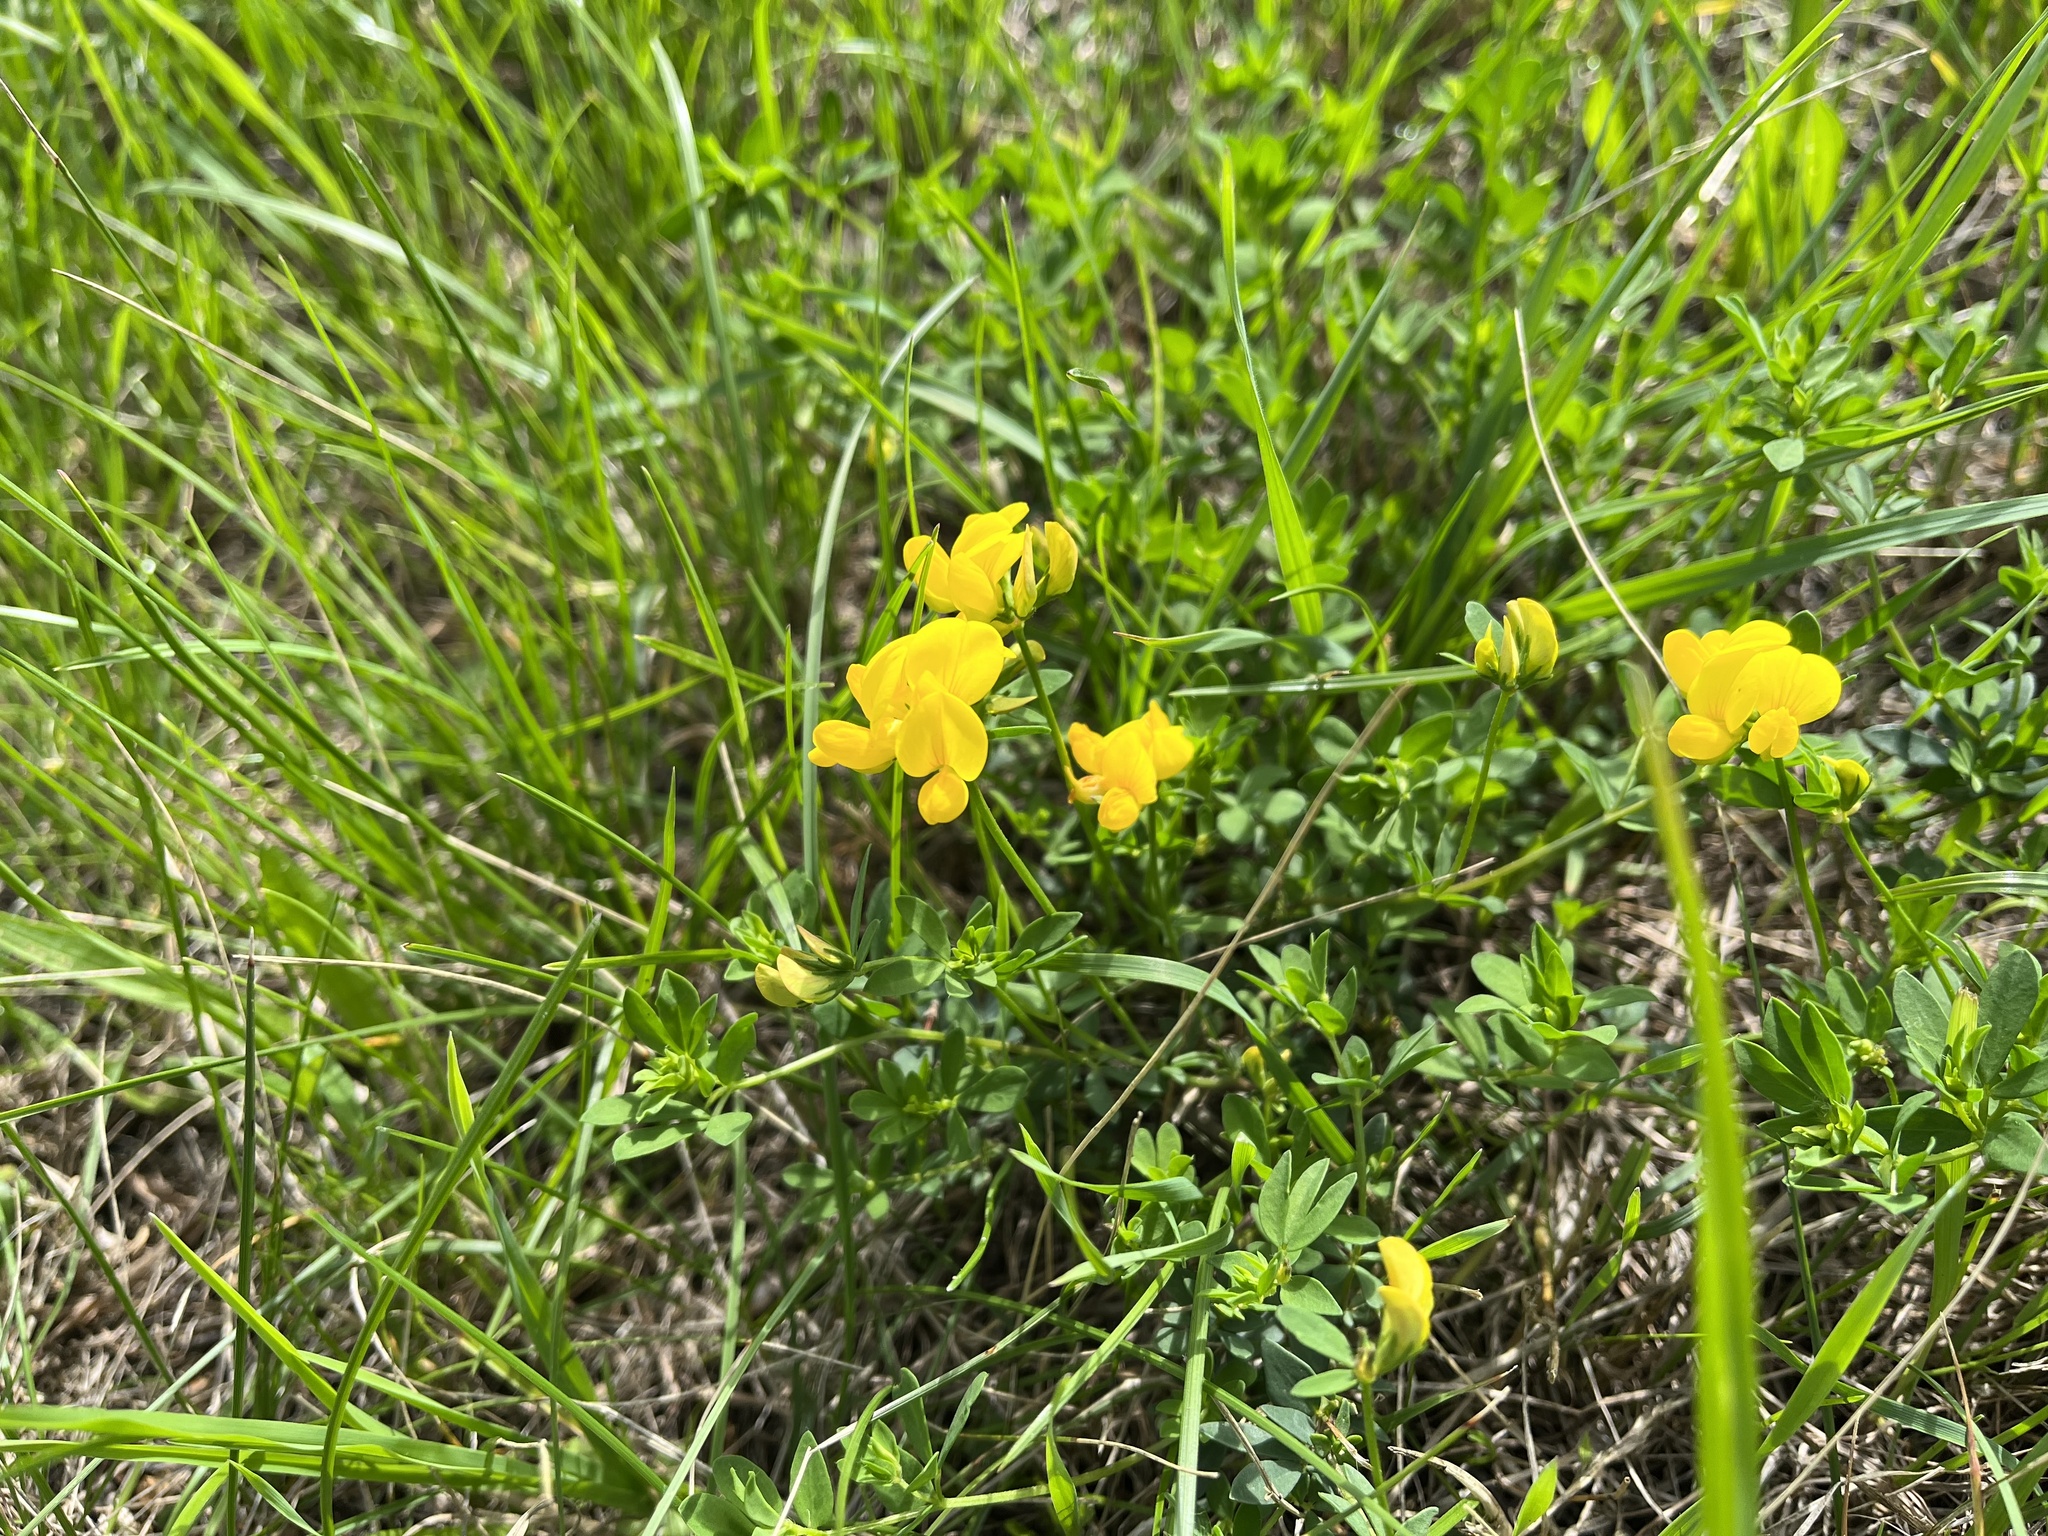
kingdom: Plantae
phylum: Tracheophyta
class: Magnoliopsida
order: Fabales
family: Fabaceae
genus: Lotus
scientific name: Lotus corniculatus
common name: Common bird's-foot-trefoil
